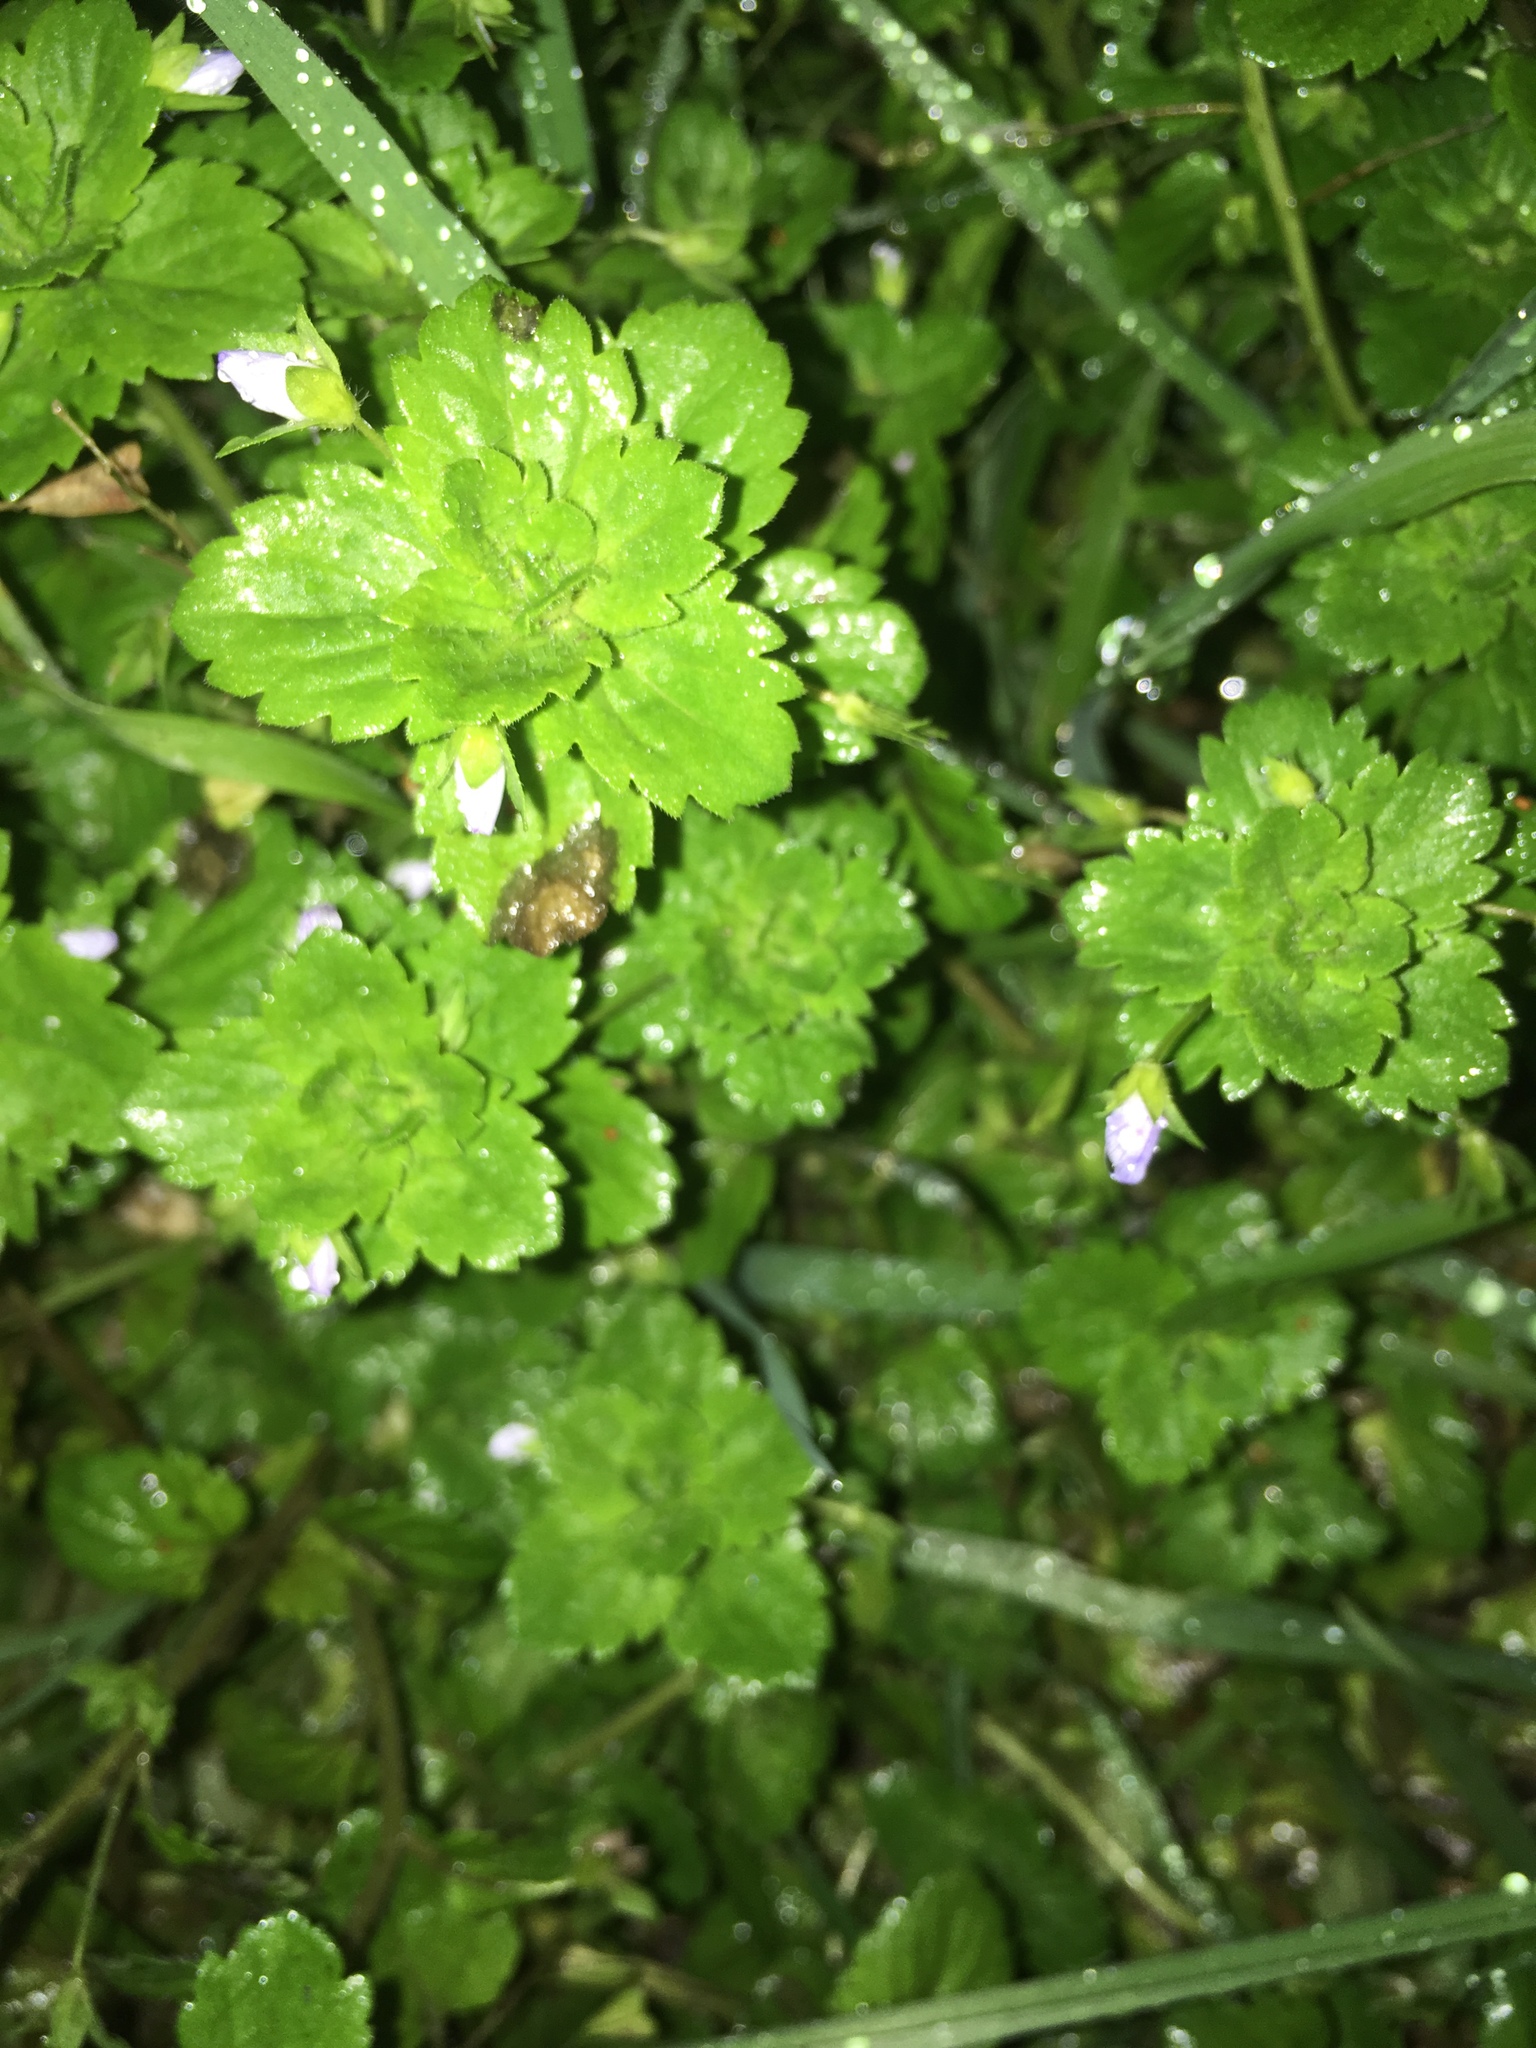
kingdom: Plantae
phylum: Tracheophyta
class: Magnoliopsida
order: Lamiales
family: Plantaginaceae
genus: Veronica
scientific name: Veronica persica
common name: Common field-speedwell
